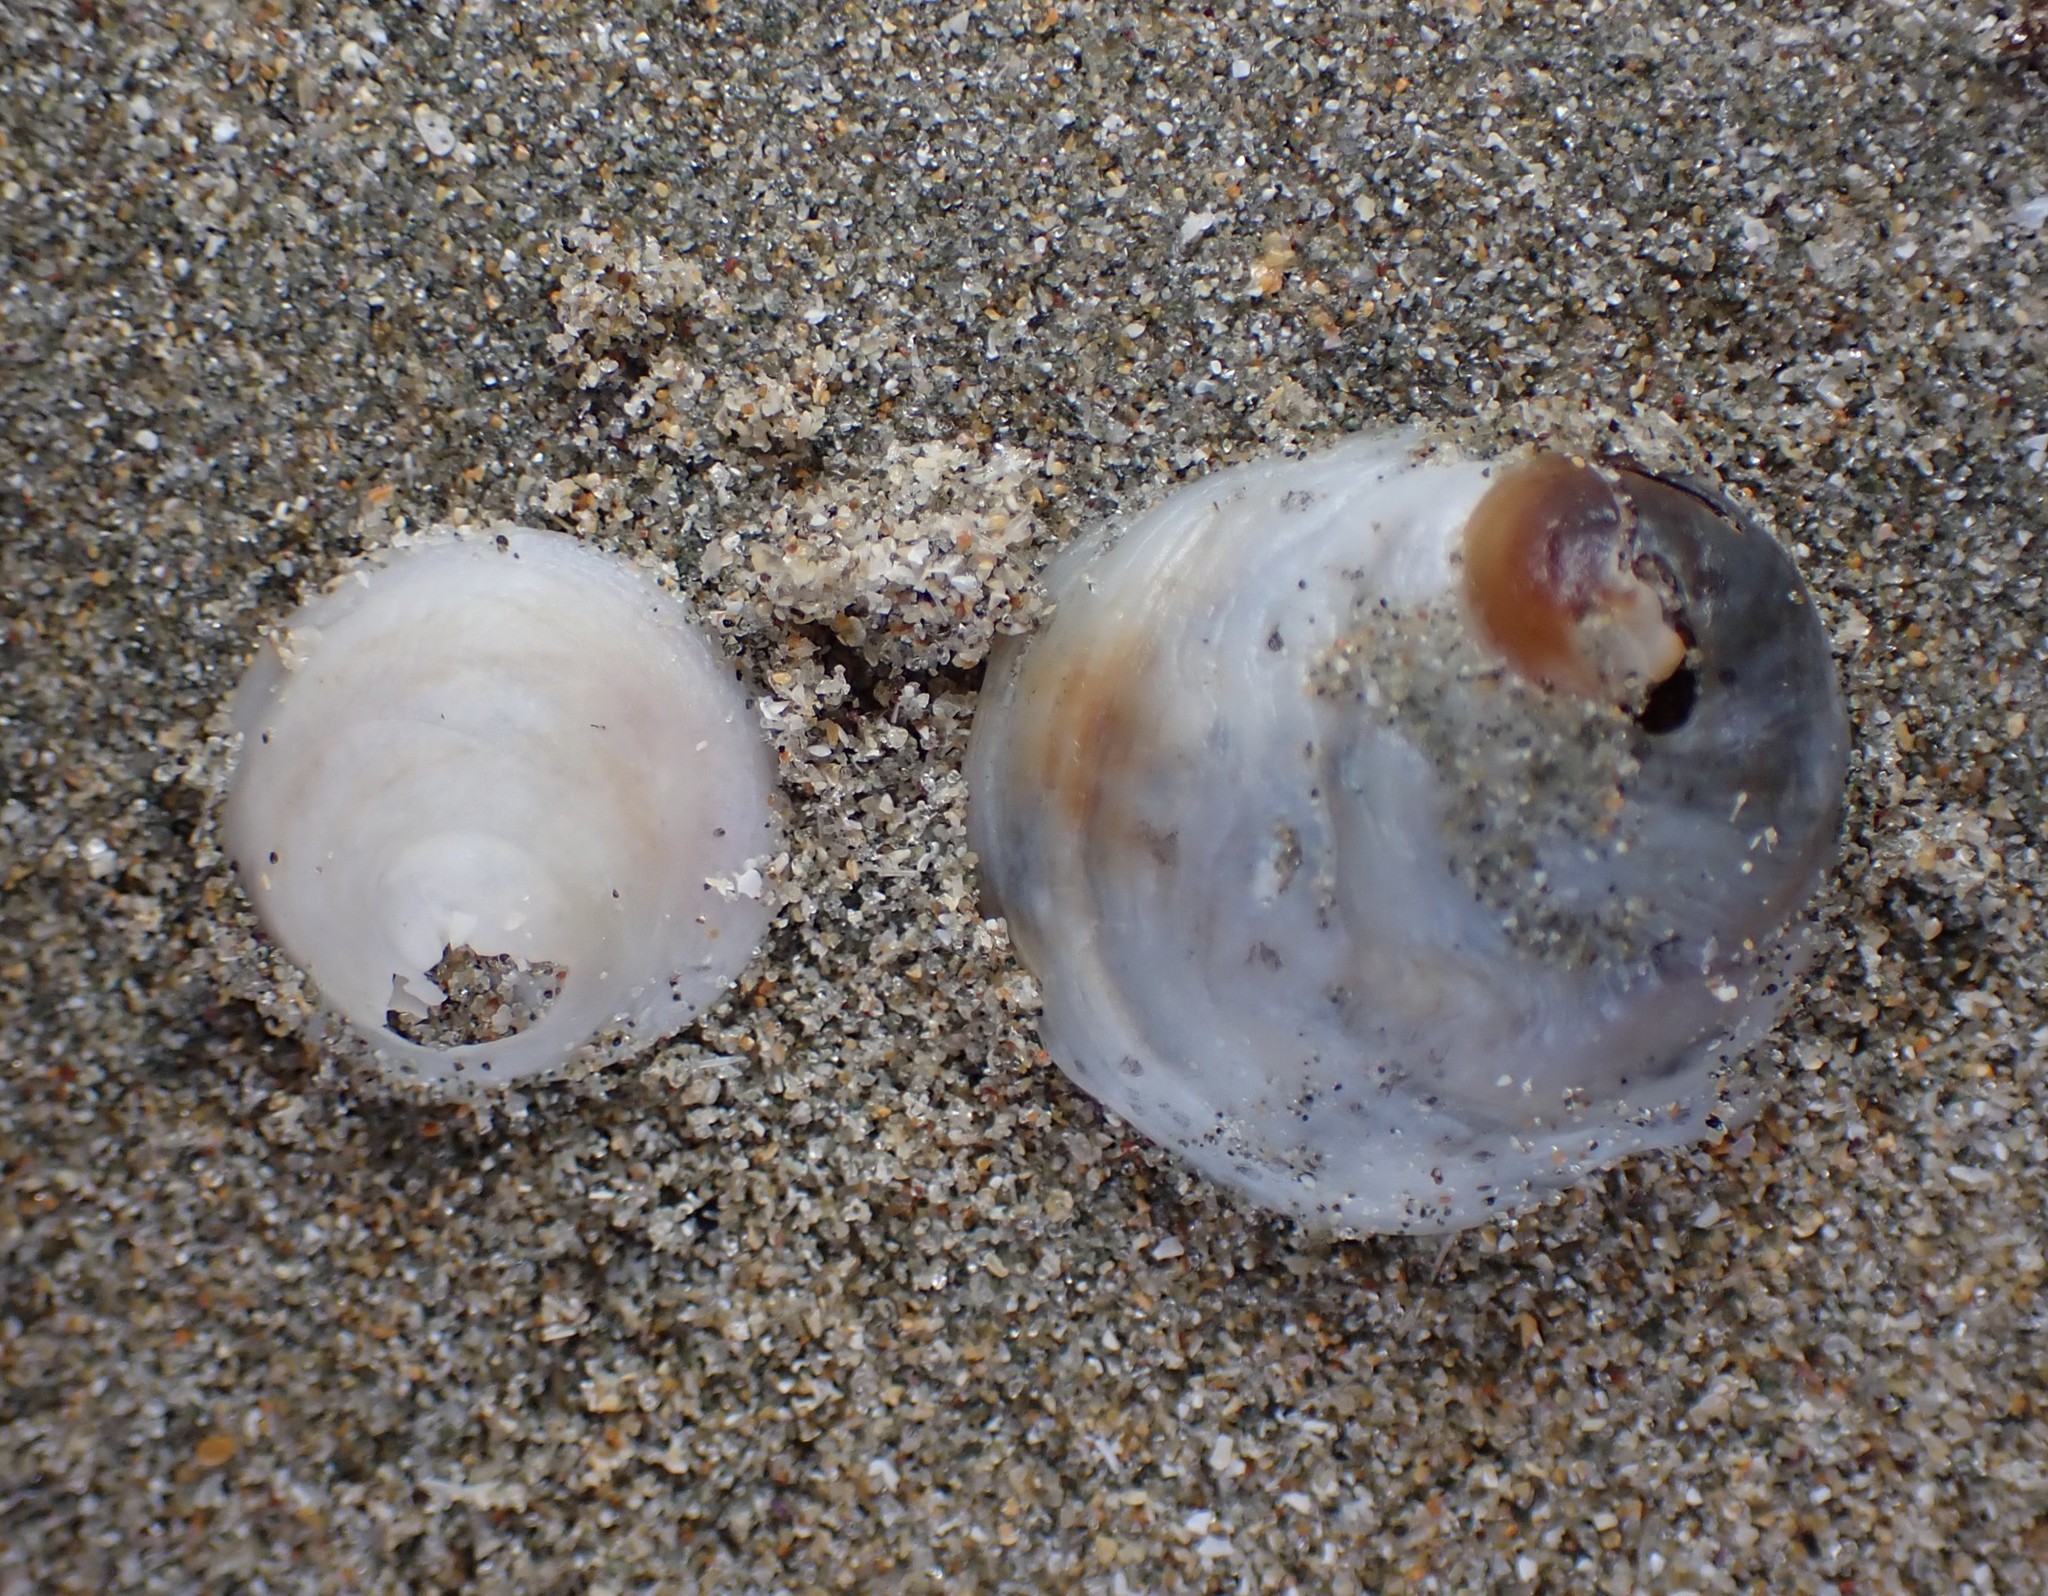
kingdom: Animalia
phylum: Mollusca
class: Gastropoda
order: Littorinimorpha
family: Calyptraeidae
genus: Sigapatella
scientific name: Sigapatella tenuis
